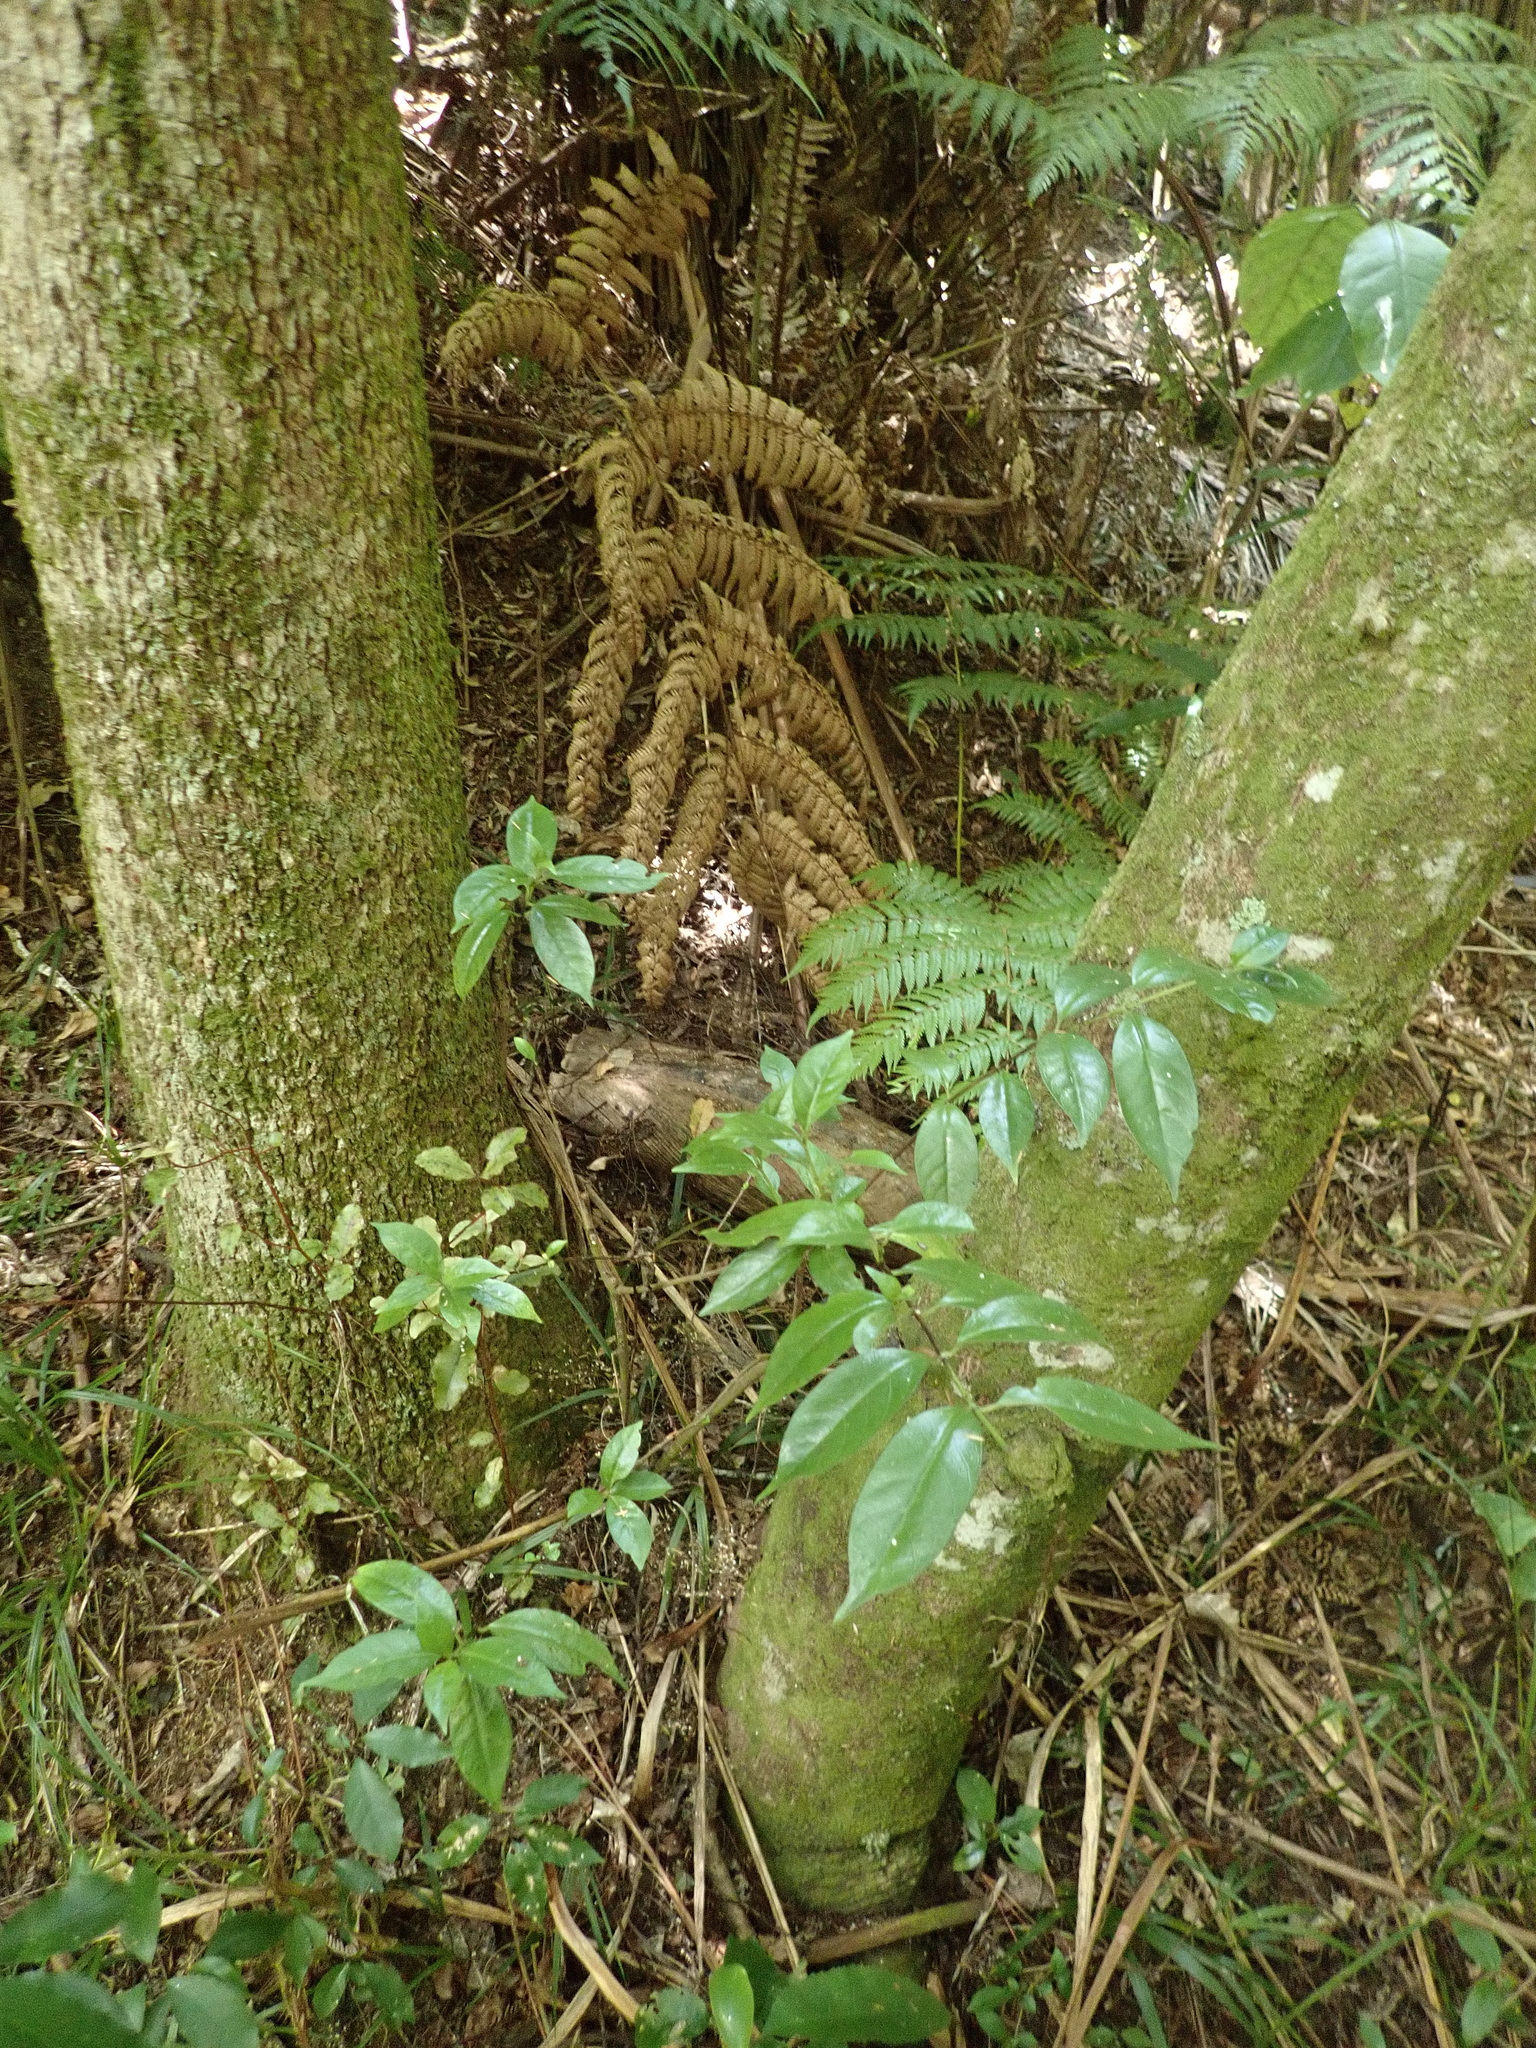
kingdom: Plantae
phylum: Tracheophyta
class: Magnoliopsida
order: Gentianales
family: Loganiaceae
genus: Geniostoma
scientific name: Geniostoma ligustrifolium
